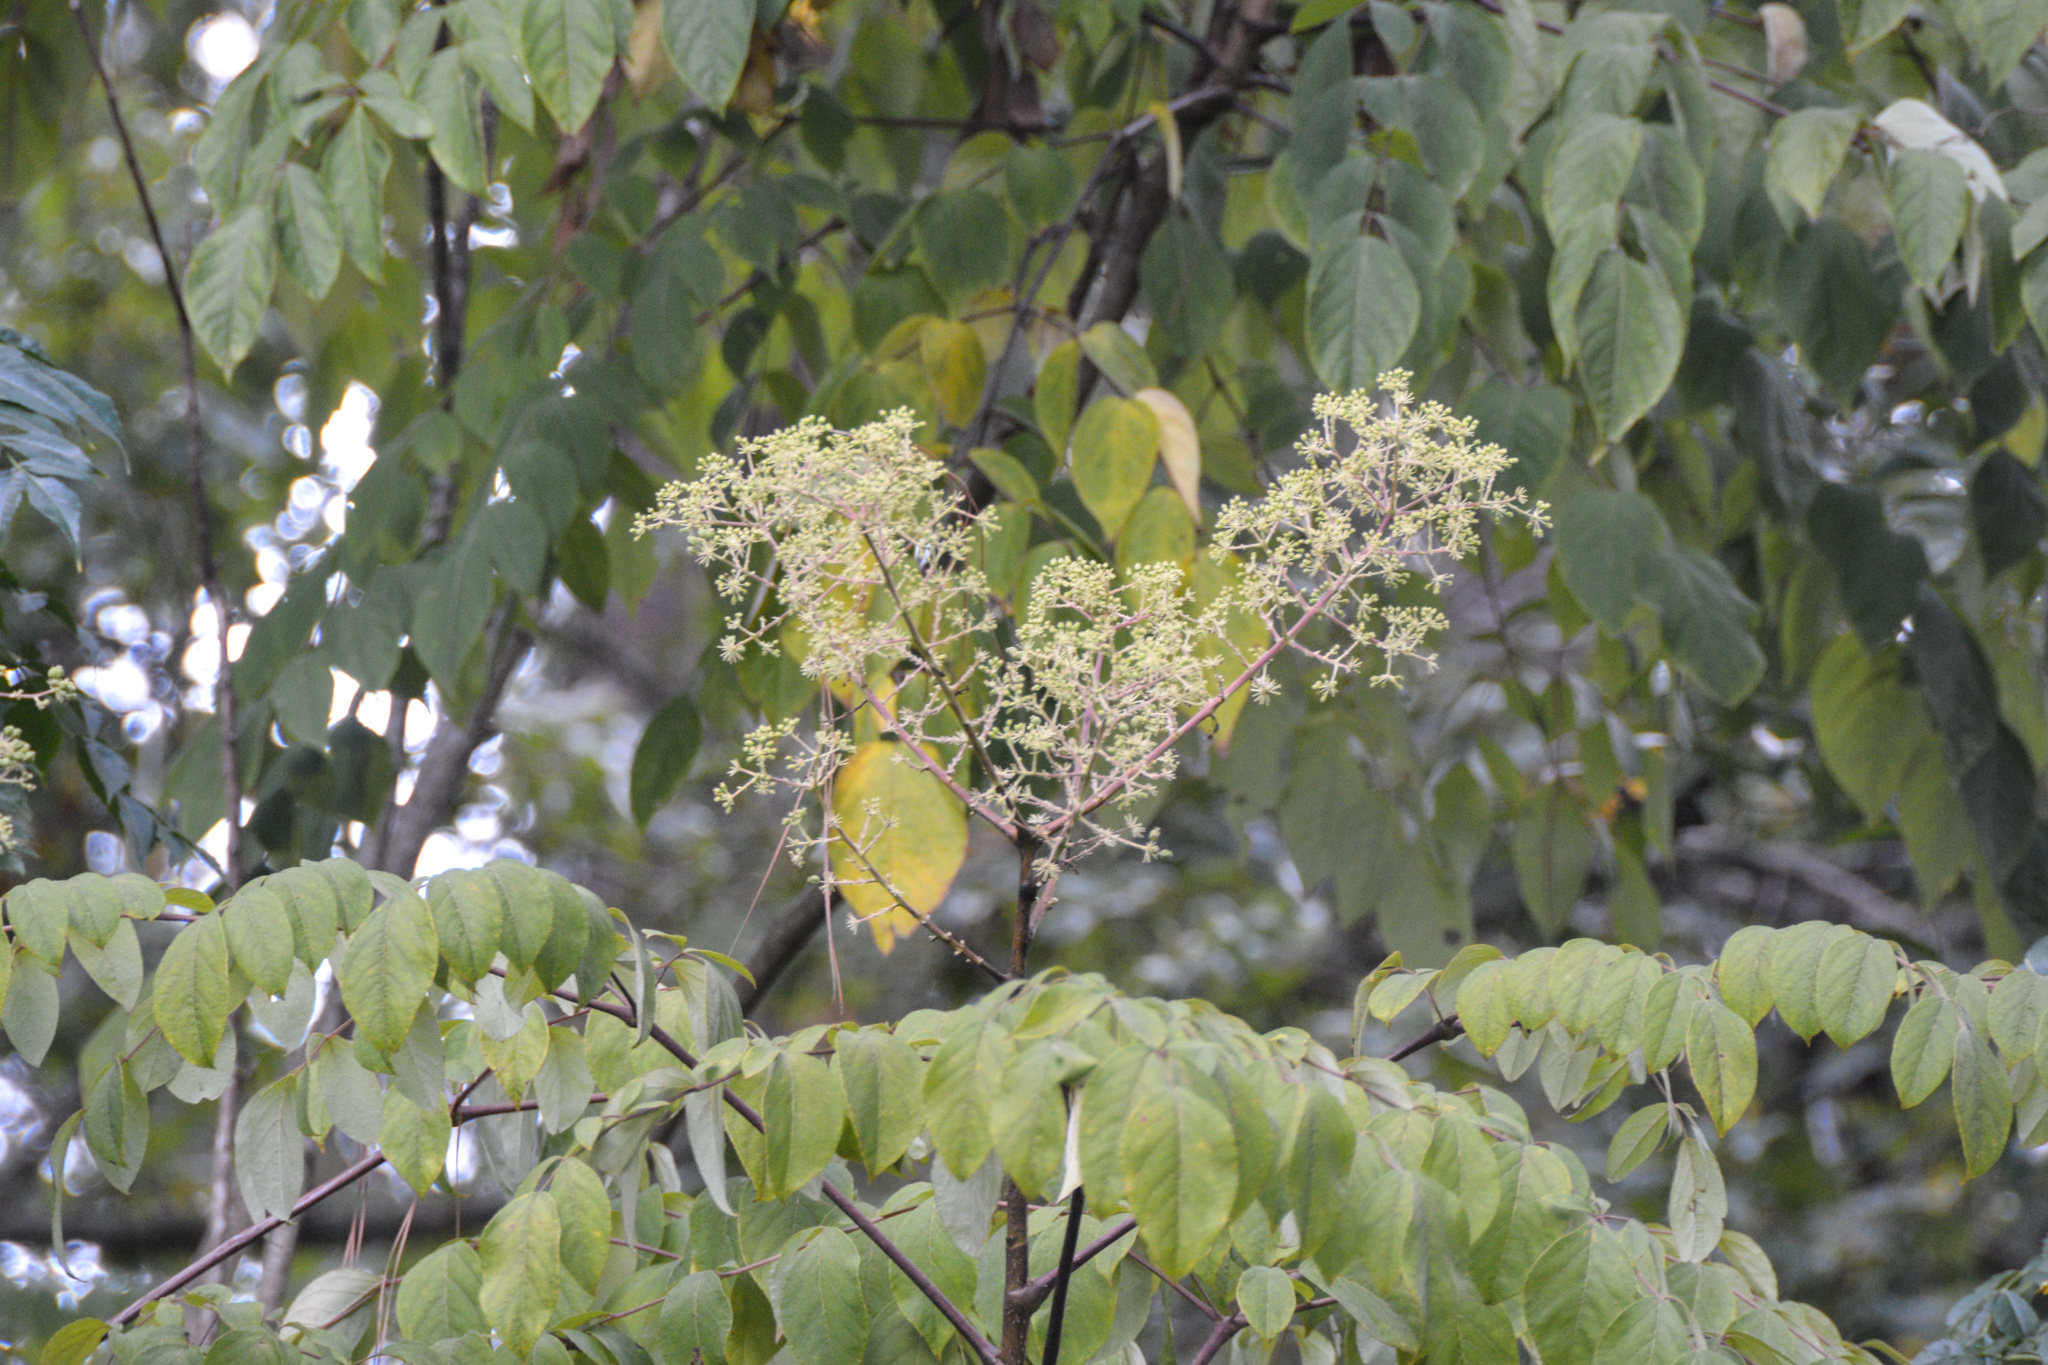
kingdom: Plantae
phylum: Tracheophyta
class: Magnoliopsida
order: Apiales
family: Araliaceae
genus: Aralia
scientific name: Aralia spinosa
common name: Hercules'-club
